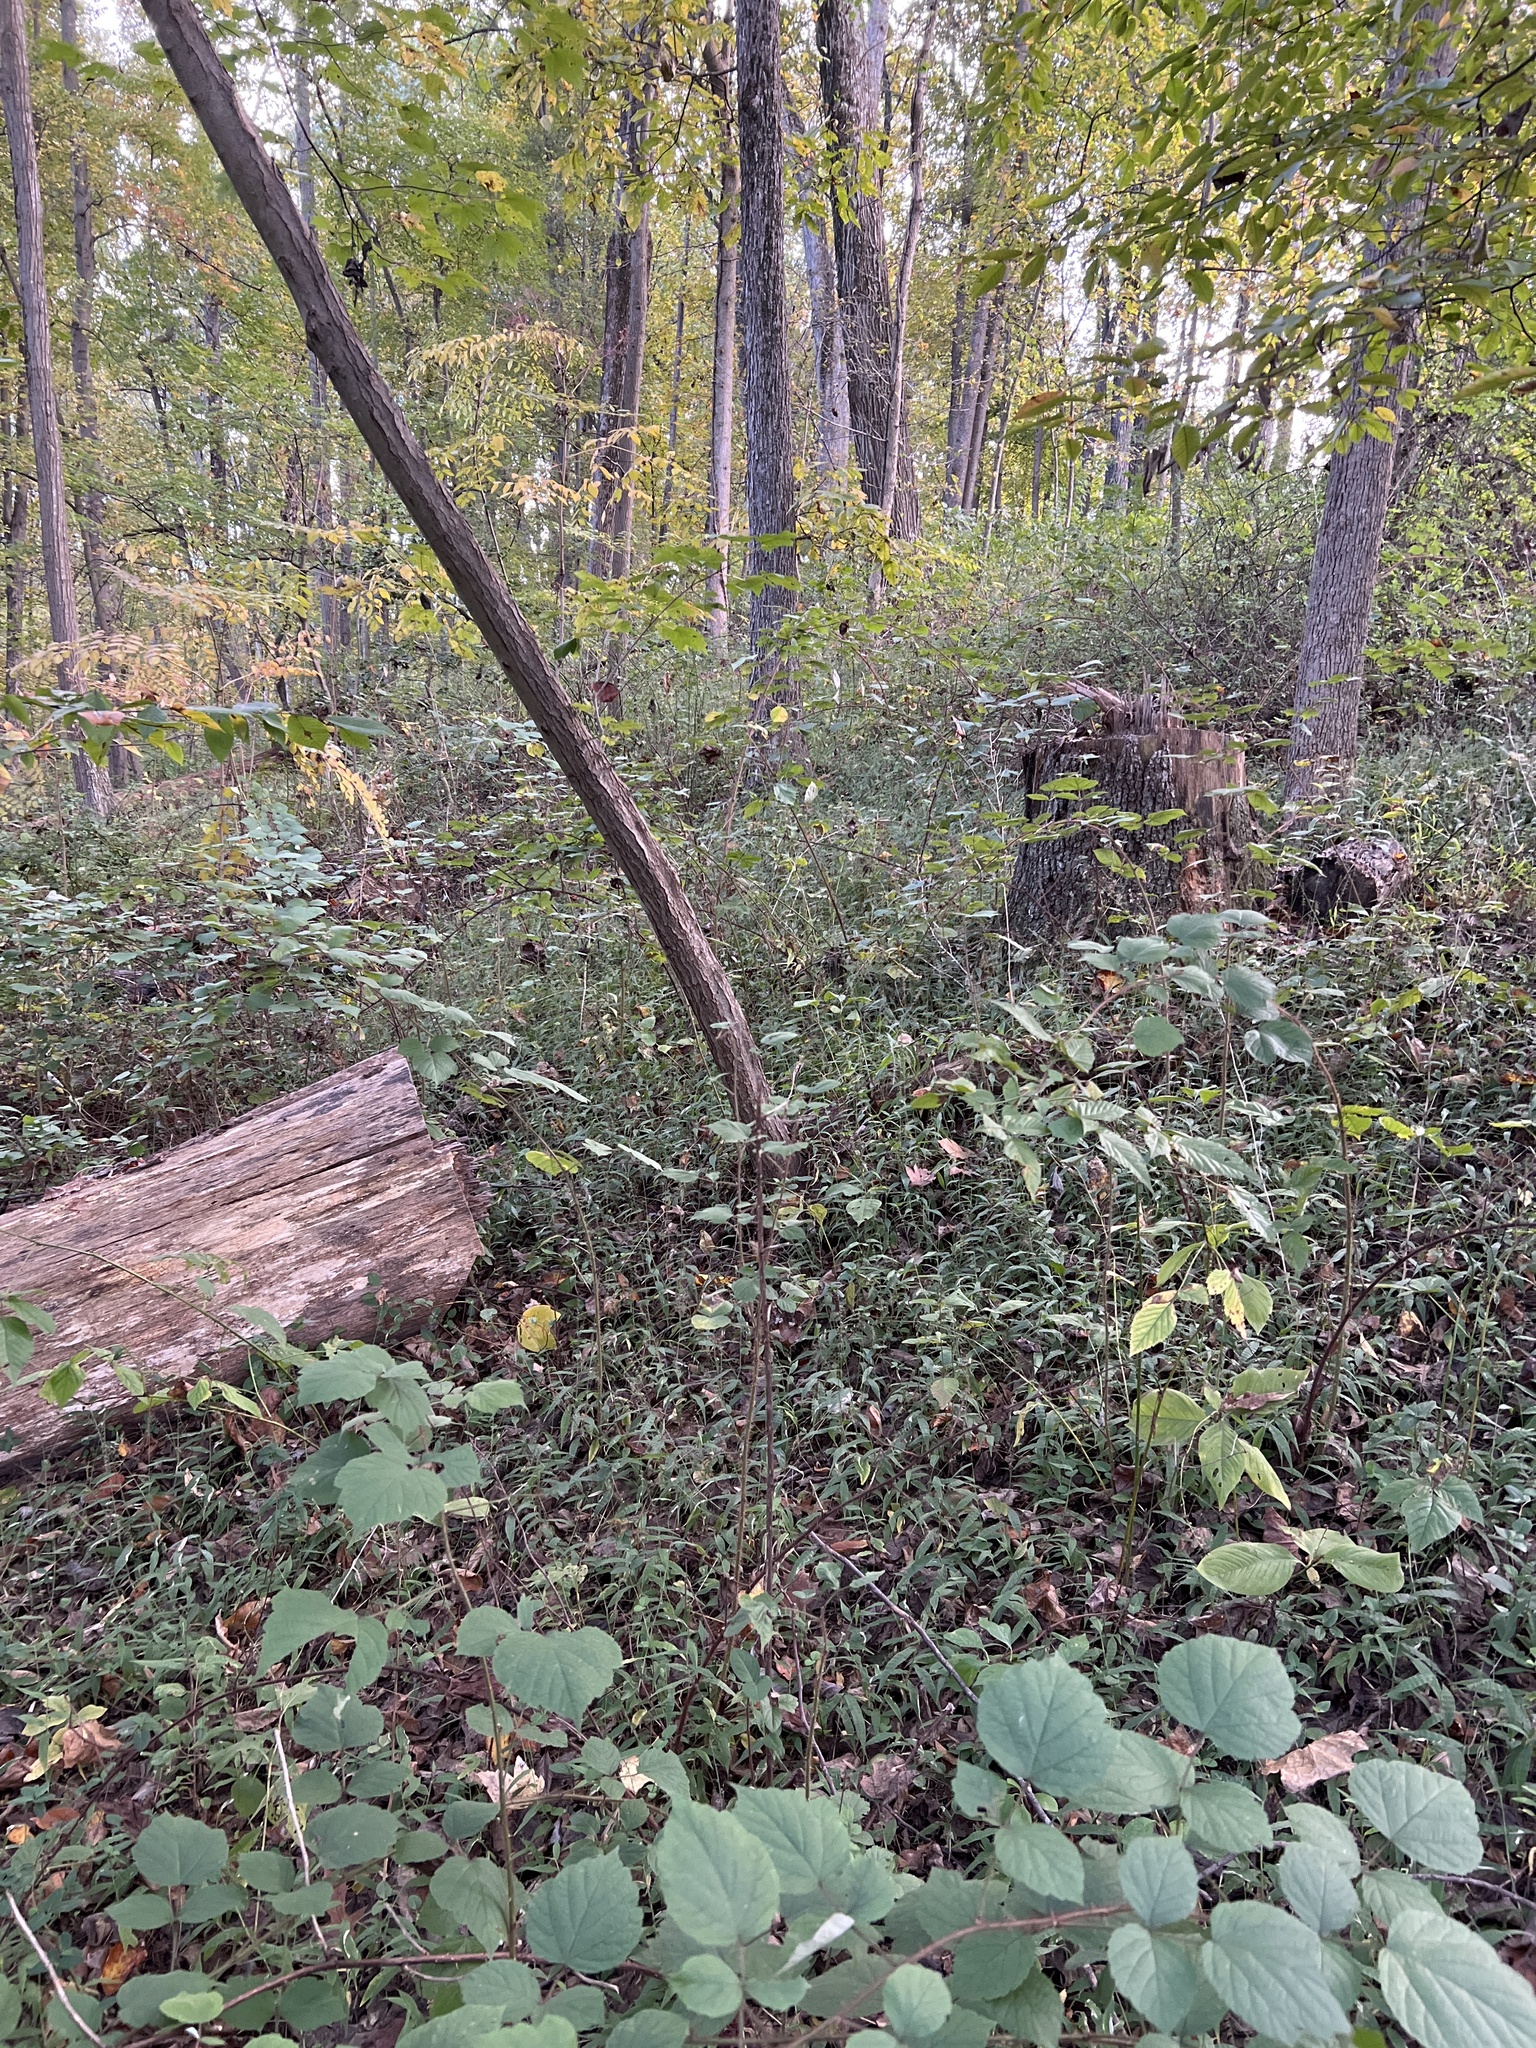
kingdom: Plantae
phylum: Tracheophyta
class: Liliopsida
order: Poales
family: Poaceae
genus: Oplismenus
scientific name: Oplismenus undulatifolius
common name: Wavyleaf basketgrass
